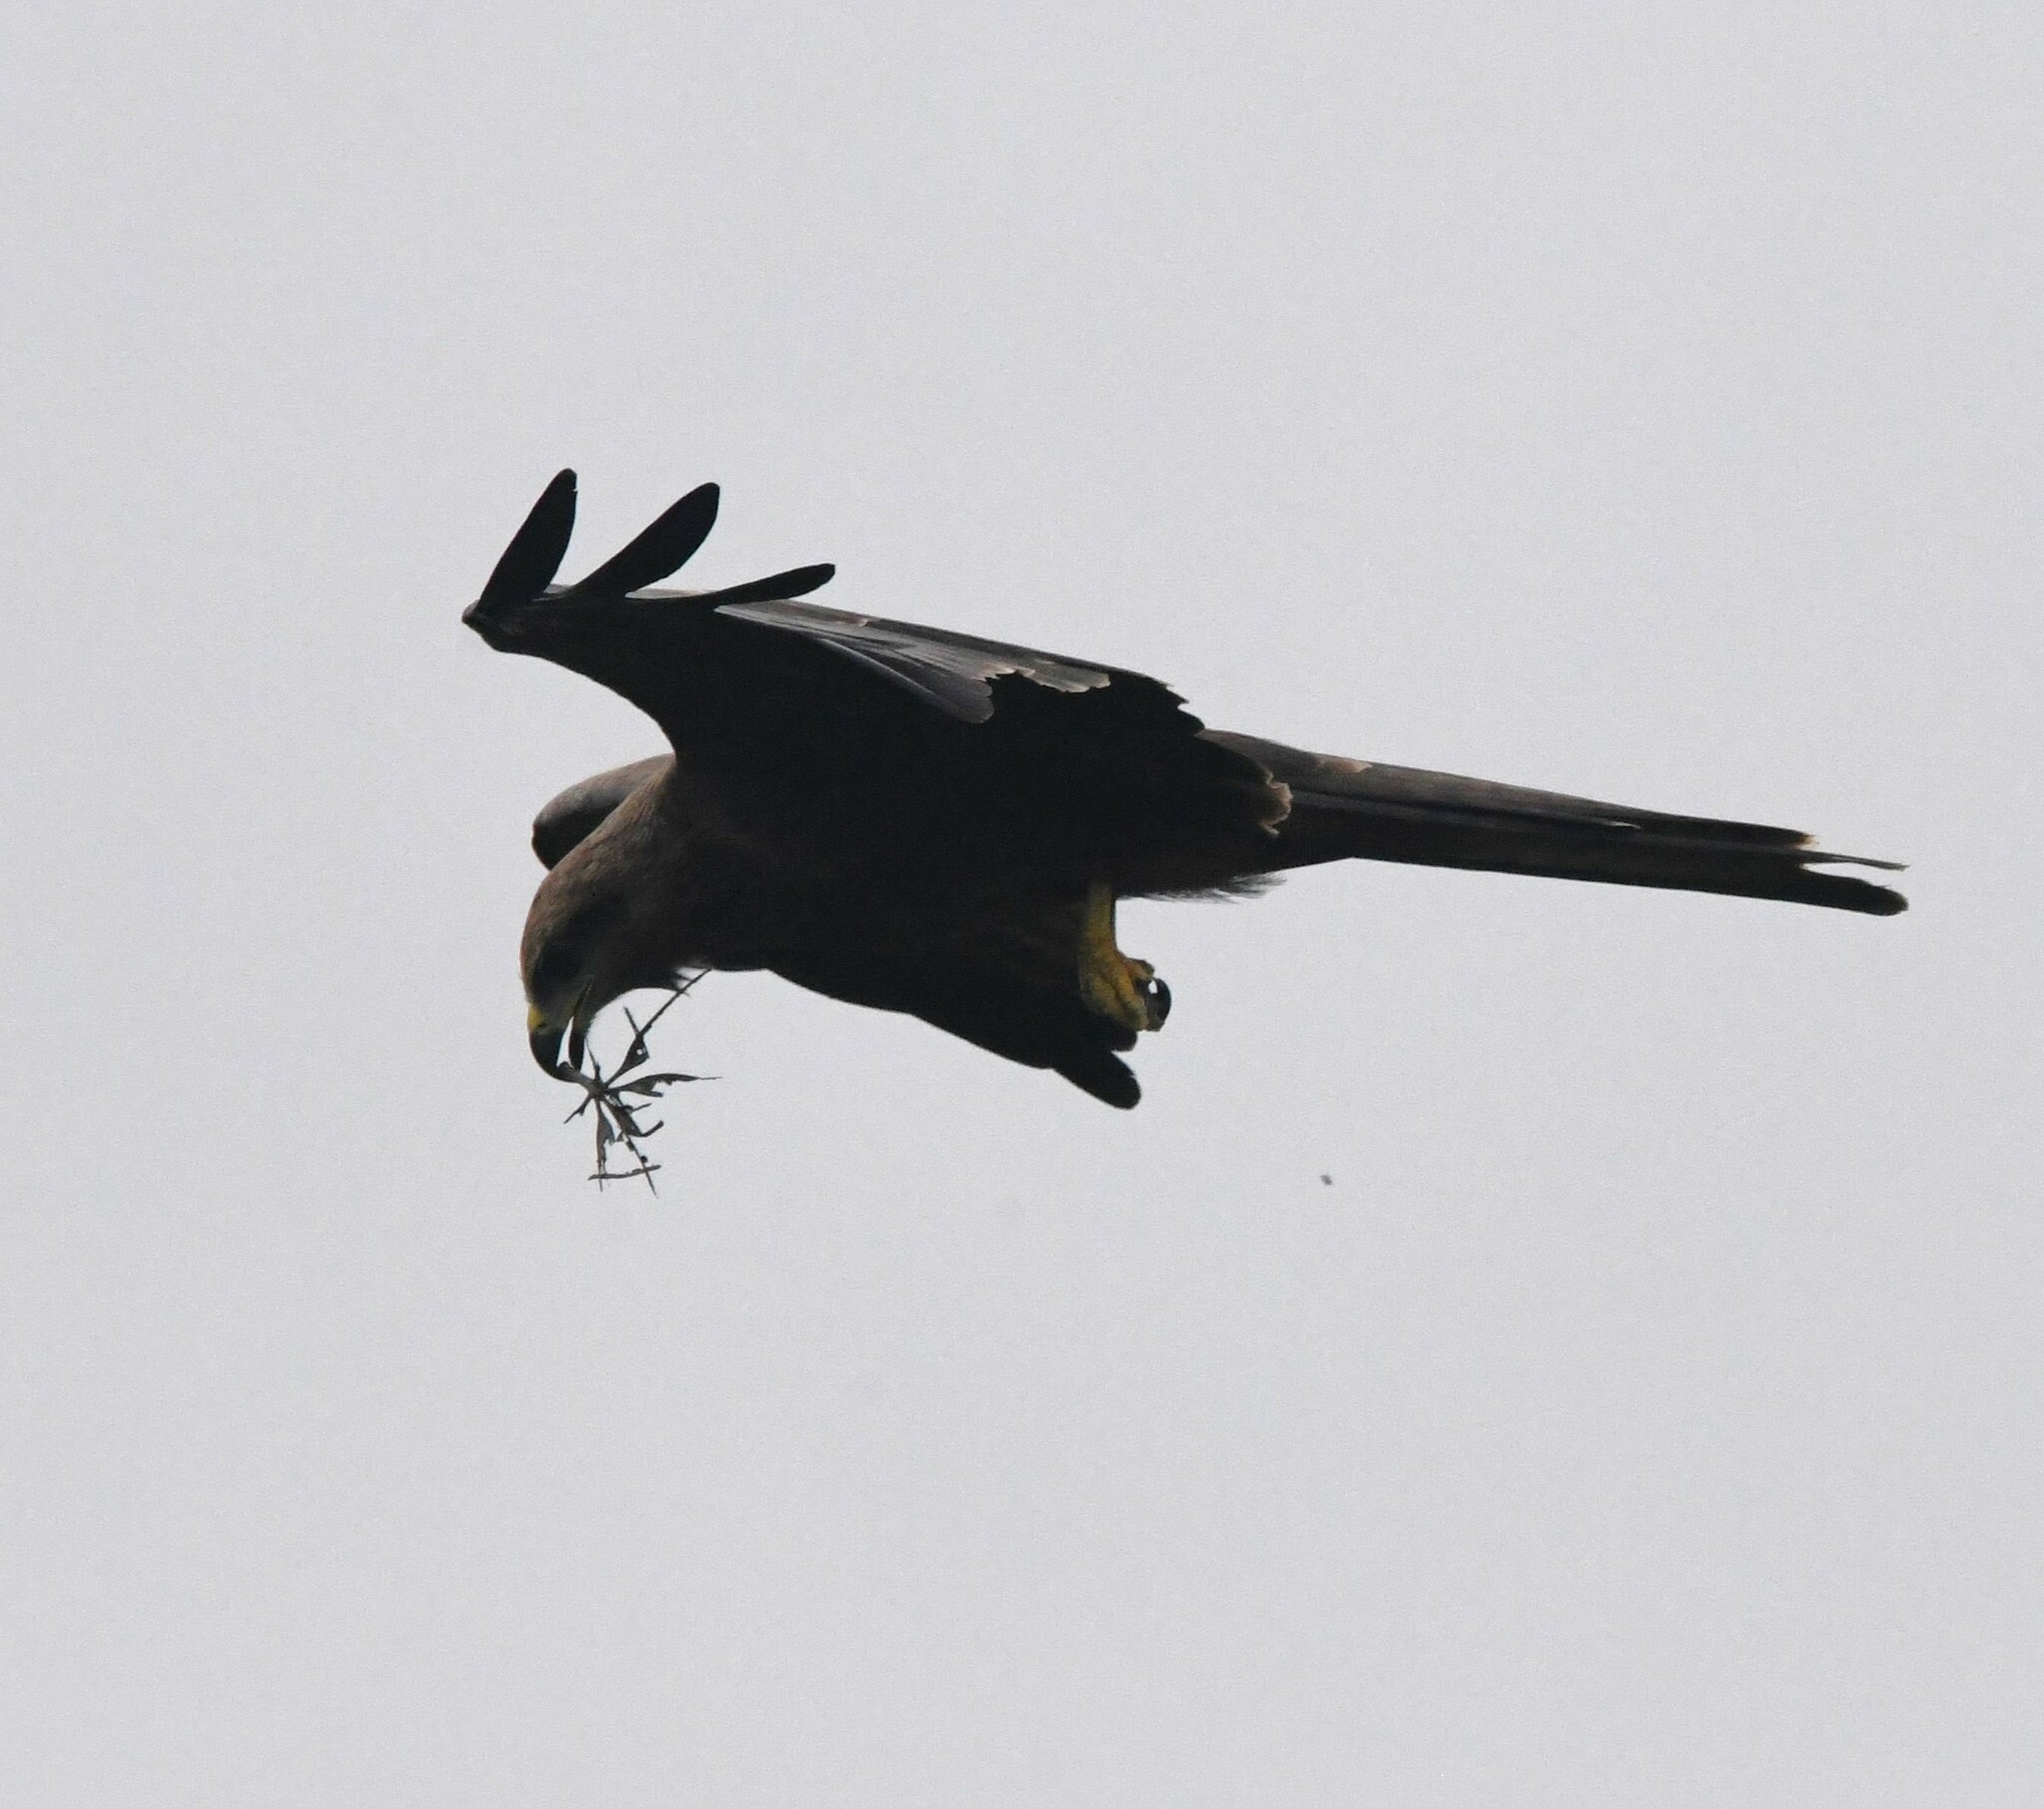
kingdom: Animalia
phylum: Chordata
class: Aves
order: Accipitriformes
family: Accipitridae
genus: Milvus
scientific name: Milvus migrans
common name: Black kite
